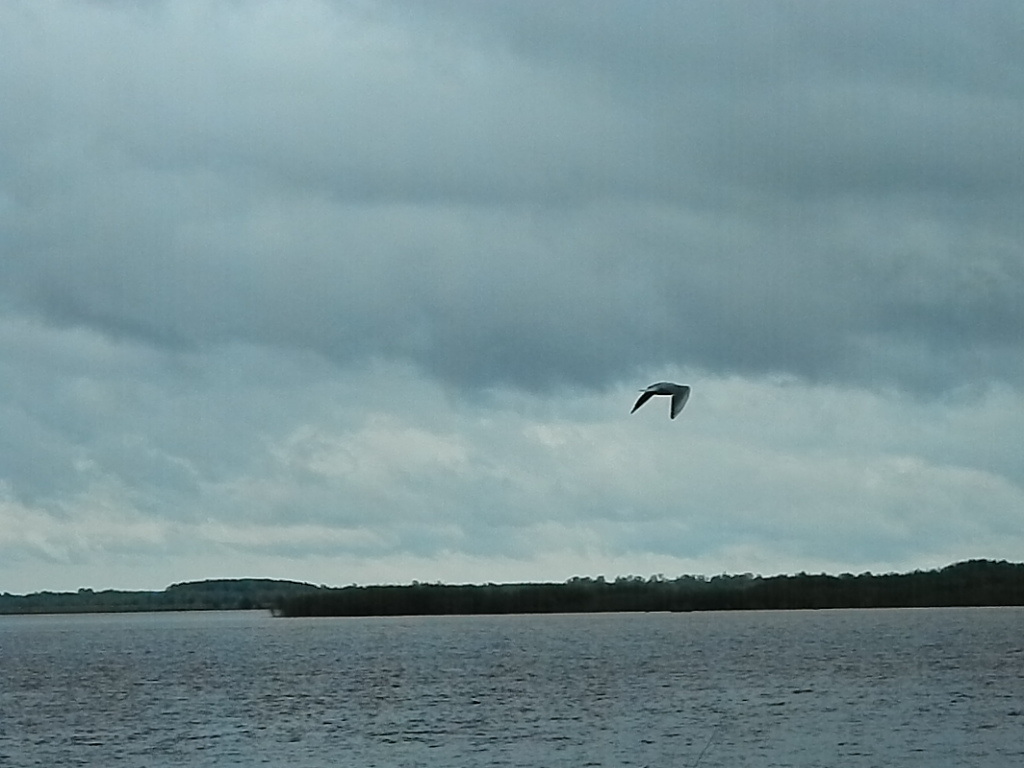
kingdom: Animalia
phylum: Chordata
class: Aves
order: Charadriiformes
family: Laridae
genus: Chroicocephalus
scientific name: Chroicocephalus ridibundus
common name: Black-headed gull
